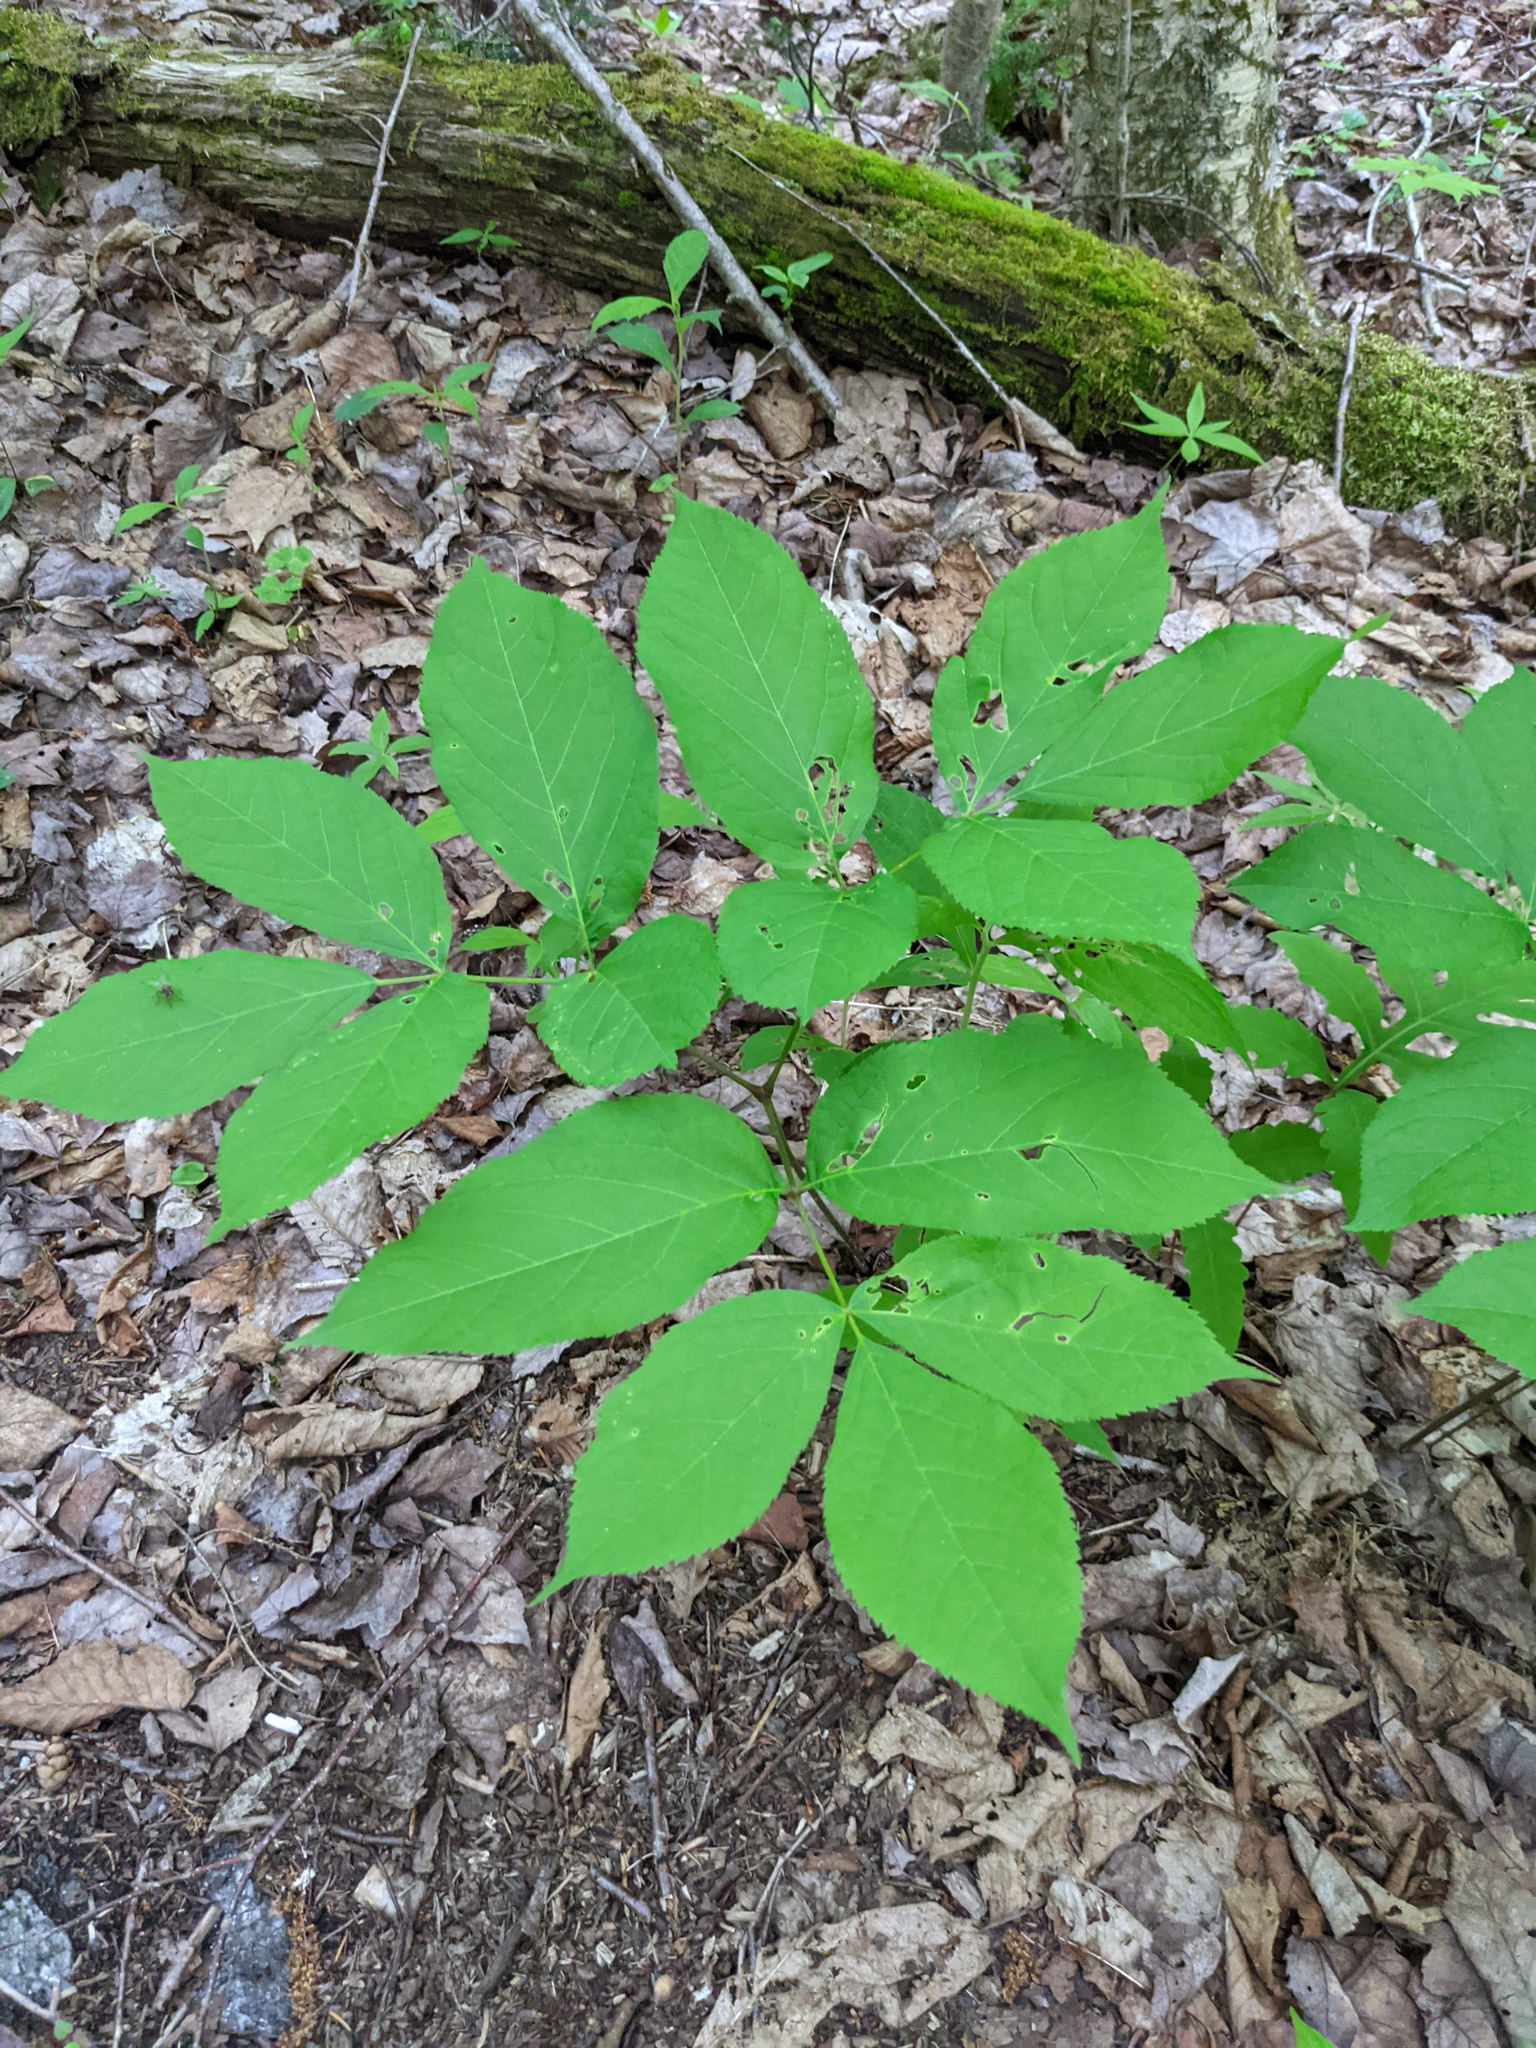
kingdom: Plantae
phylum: Tracheophyta
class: Magnoliopsida
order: Apiales
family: Araliaceae
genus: Aralia
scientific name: Aralia nudicaulis
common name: Wild sarsaparilla
